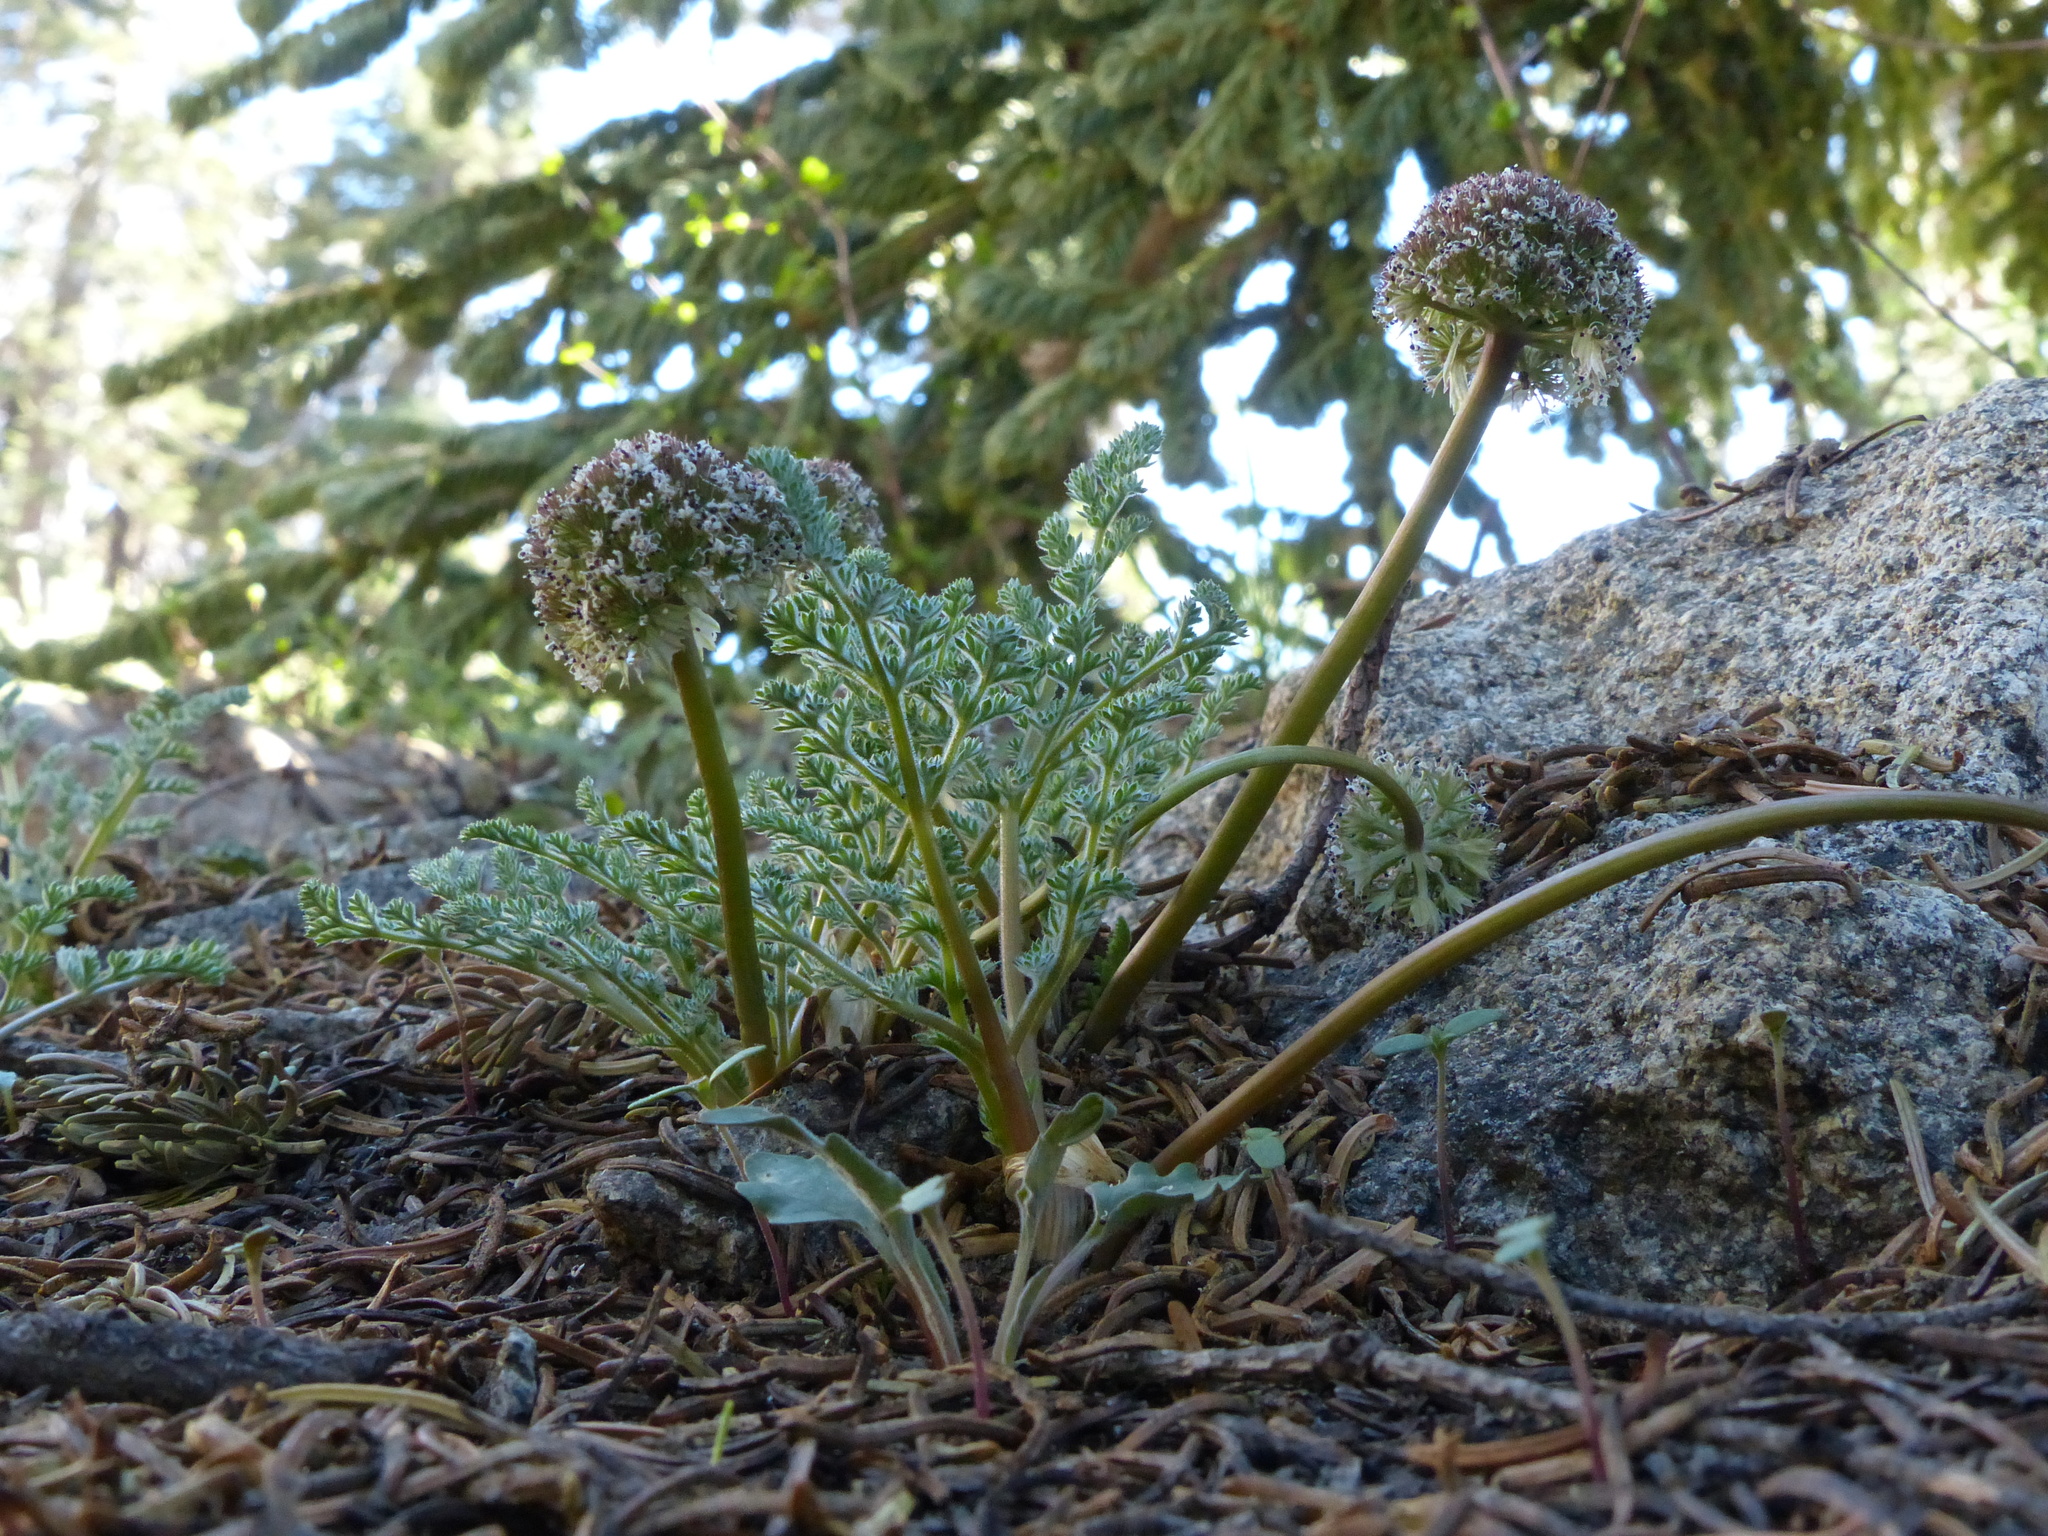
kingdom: Plantae
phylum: Tracheophyta
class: Magnoliopsida
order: Apiales
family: Apiaceae
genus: Oreonana
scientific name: Oreonana purpurascens
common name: Purple mountain-parsley
